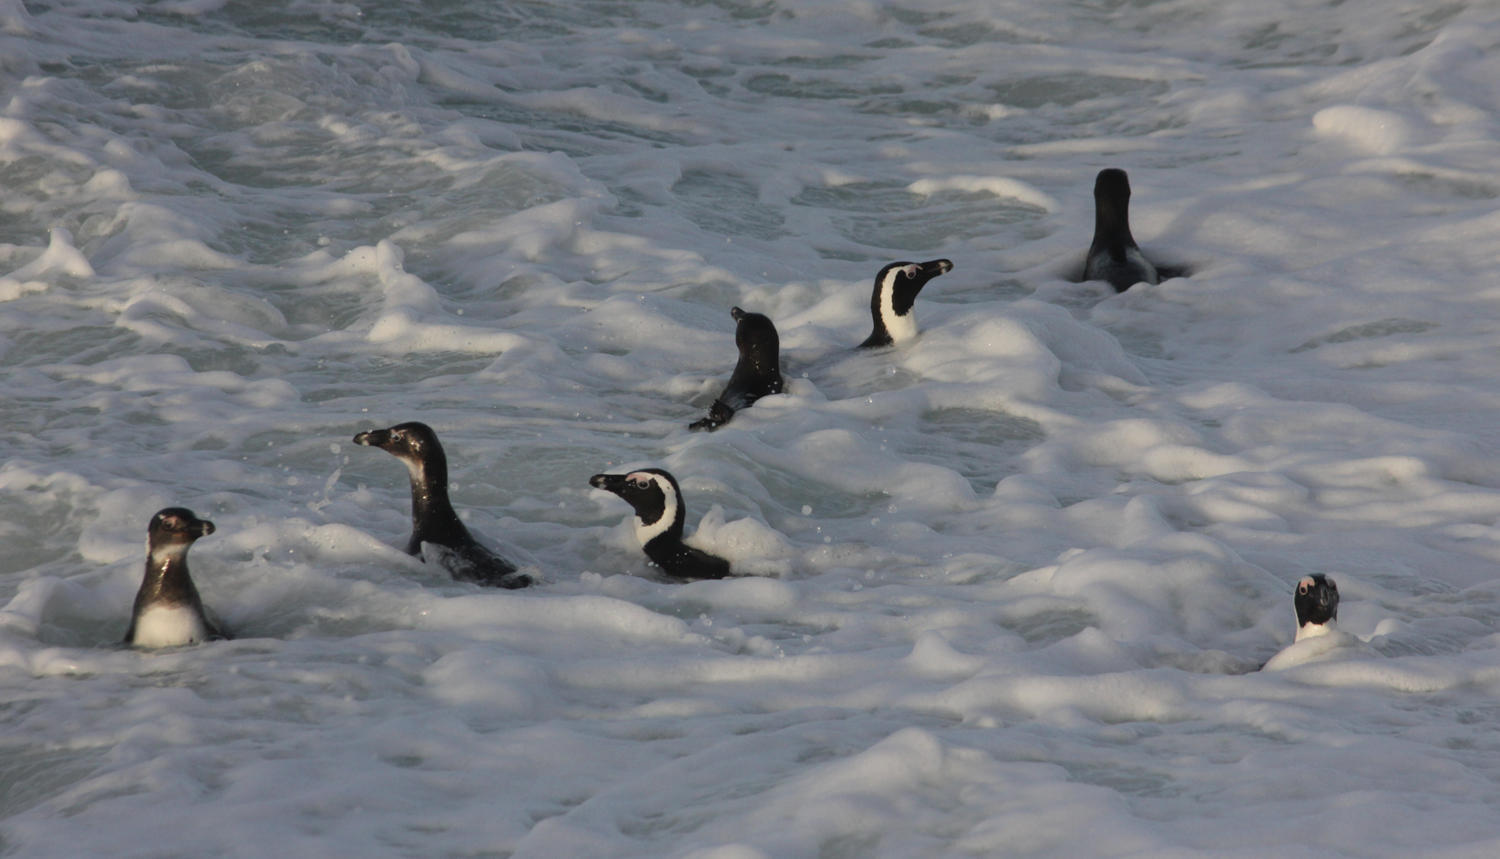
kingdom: Animalia
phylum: Chordata
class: Aves
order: Sphenisciformes
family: Spheniscidae
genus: Spheniscus
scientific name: Spheniscus demersus
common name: African penguin
